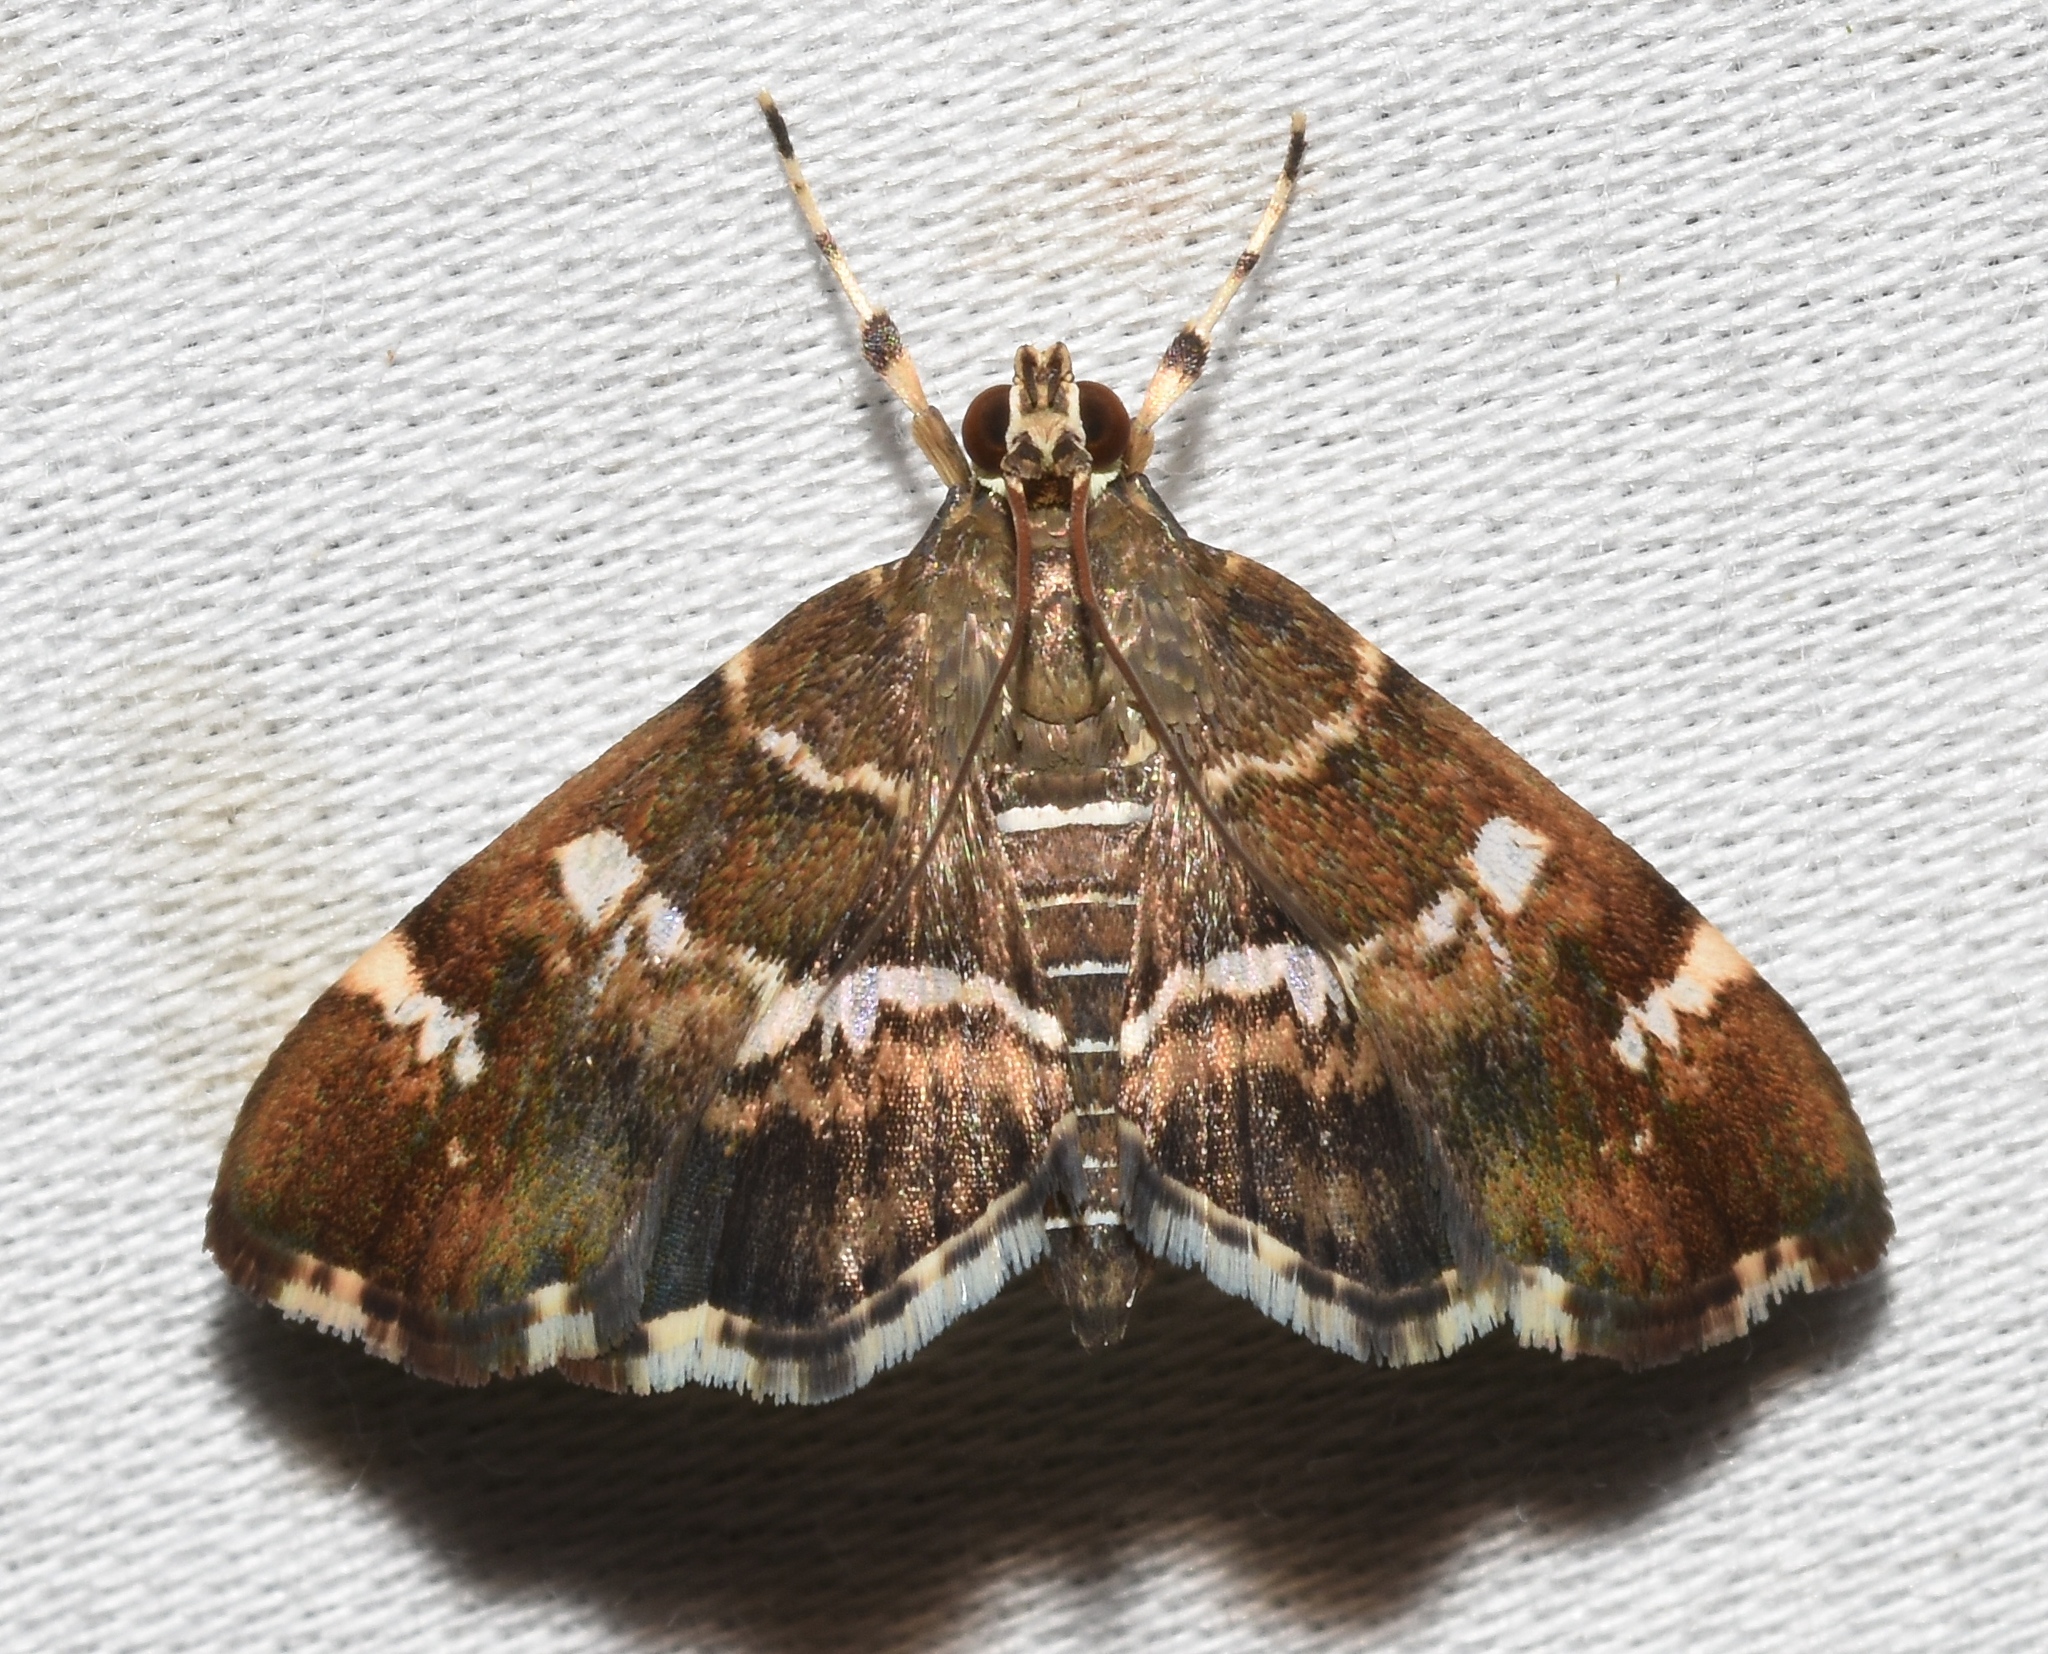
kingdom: Animalia
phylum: Arthropoda
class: Insecta
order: Lepidoptera
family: Crambidae
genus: Hymenia
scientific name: Hymenia perspectalis
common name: Spotted beet webworm
